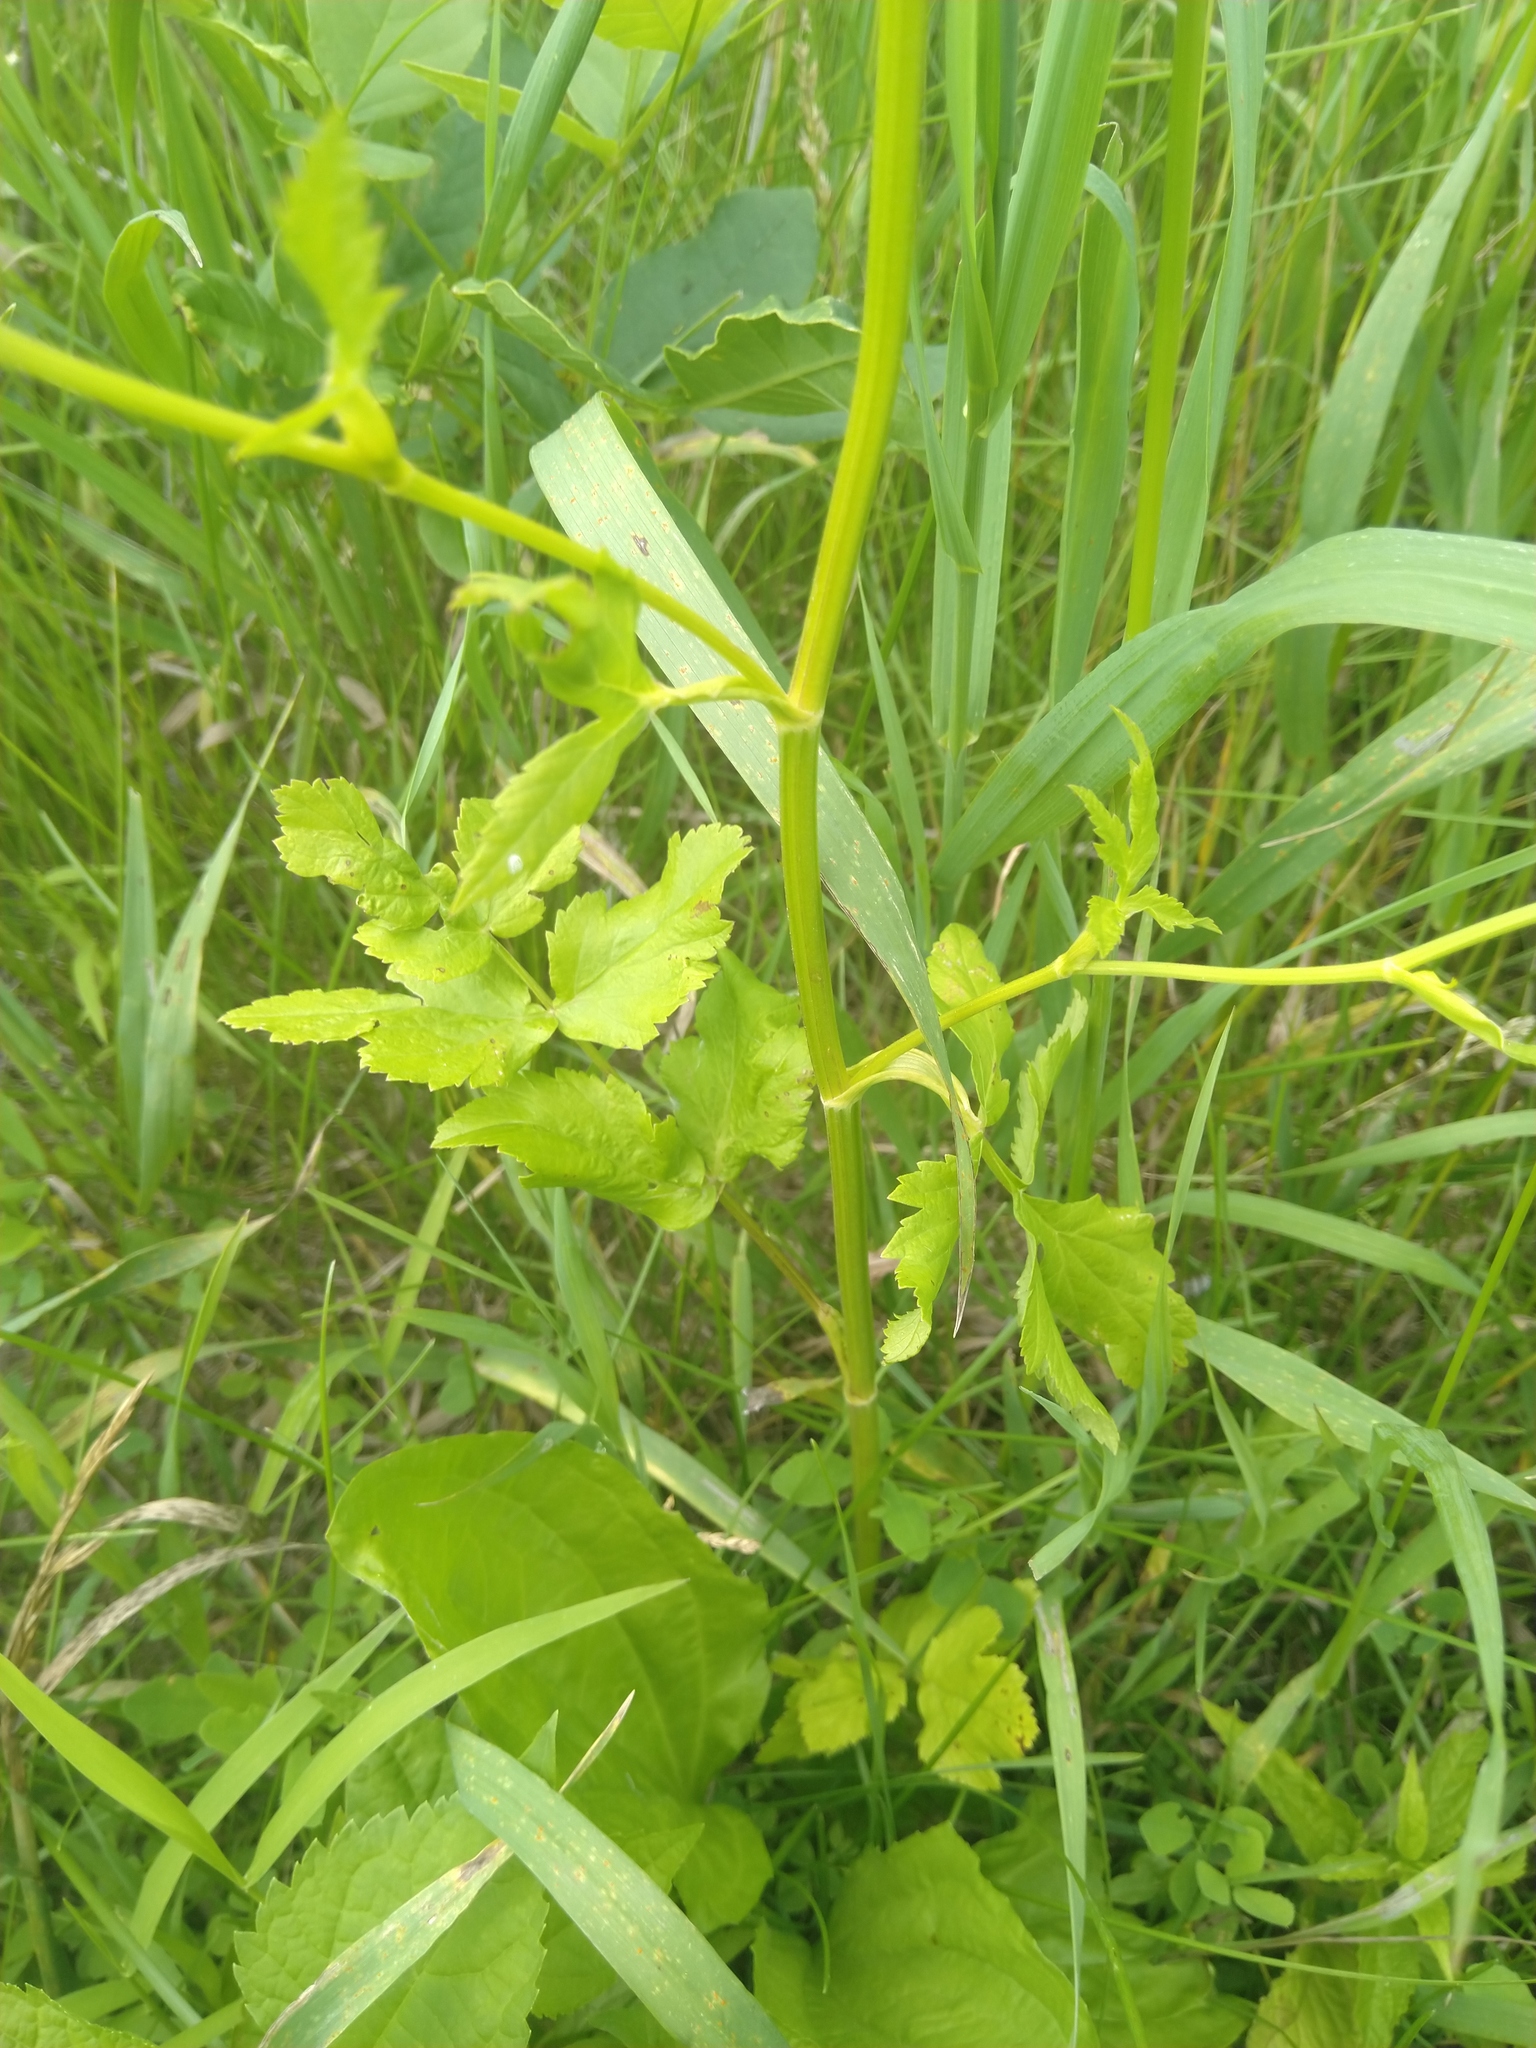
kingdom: Plantae
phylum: Tracheophyta
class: Magnoliopsida
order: Apiales
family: Apiaceae
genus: Pastinaca
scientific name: Pastinaca sativa
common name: Wild parsnip
